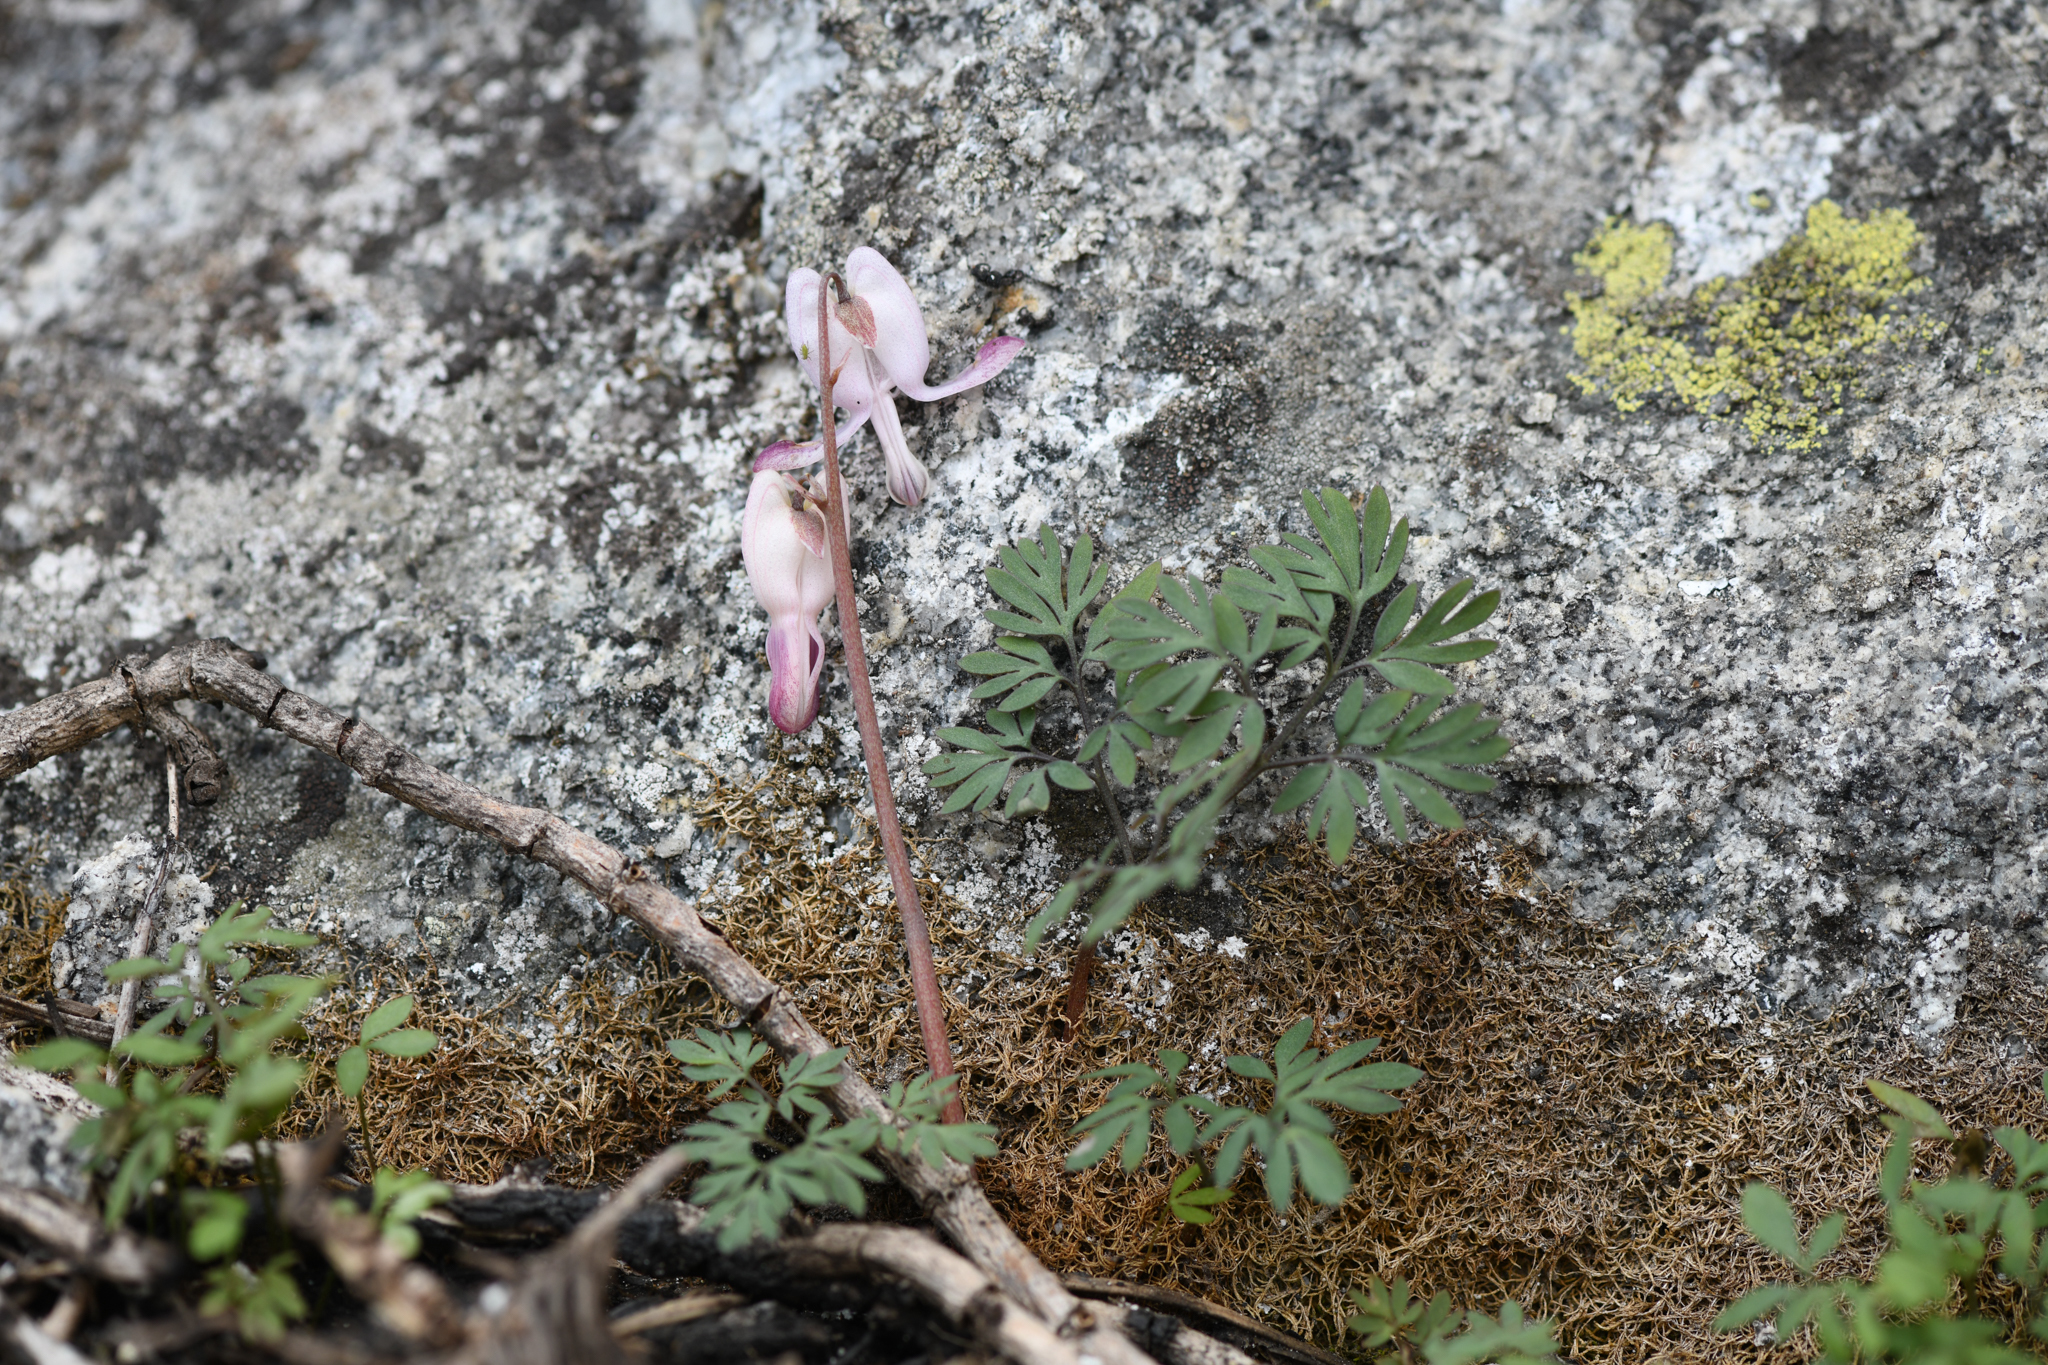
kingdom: Plantae
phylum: Tracheophyta
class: Magnoliopsida
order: Ranunculales
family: Papaveraceae
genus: Dicentra
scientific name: Dicentra pauciflora
